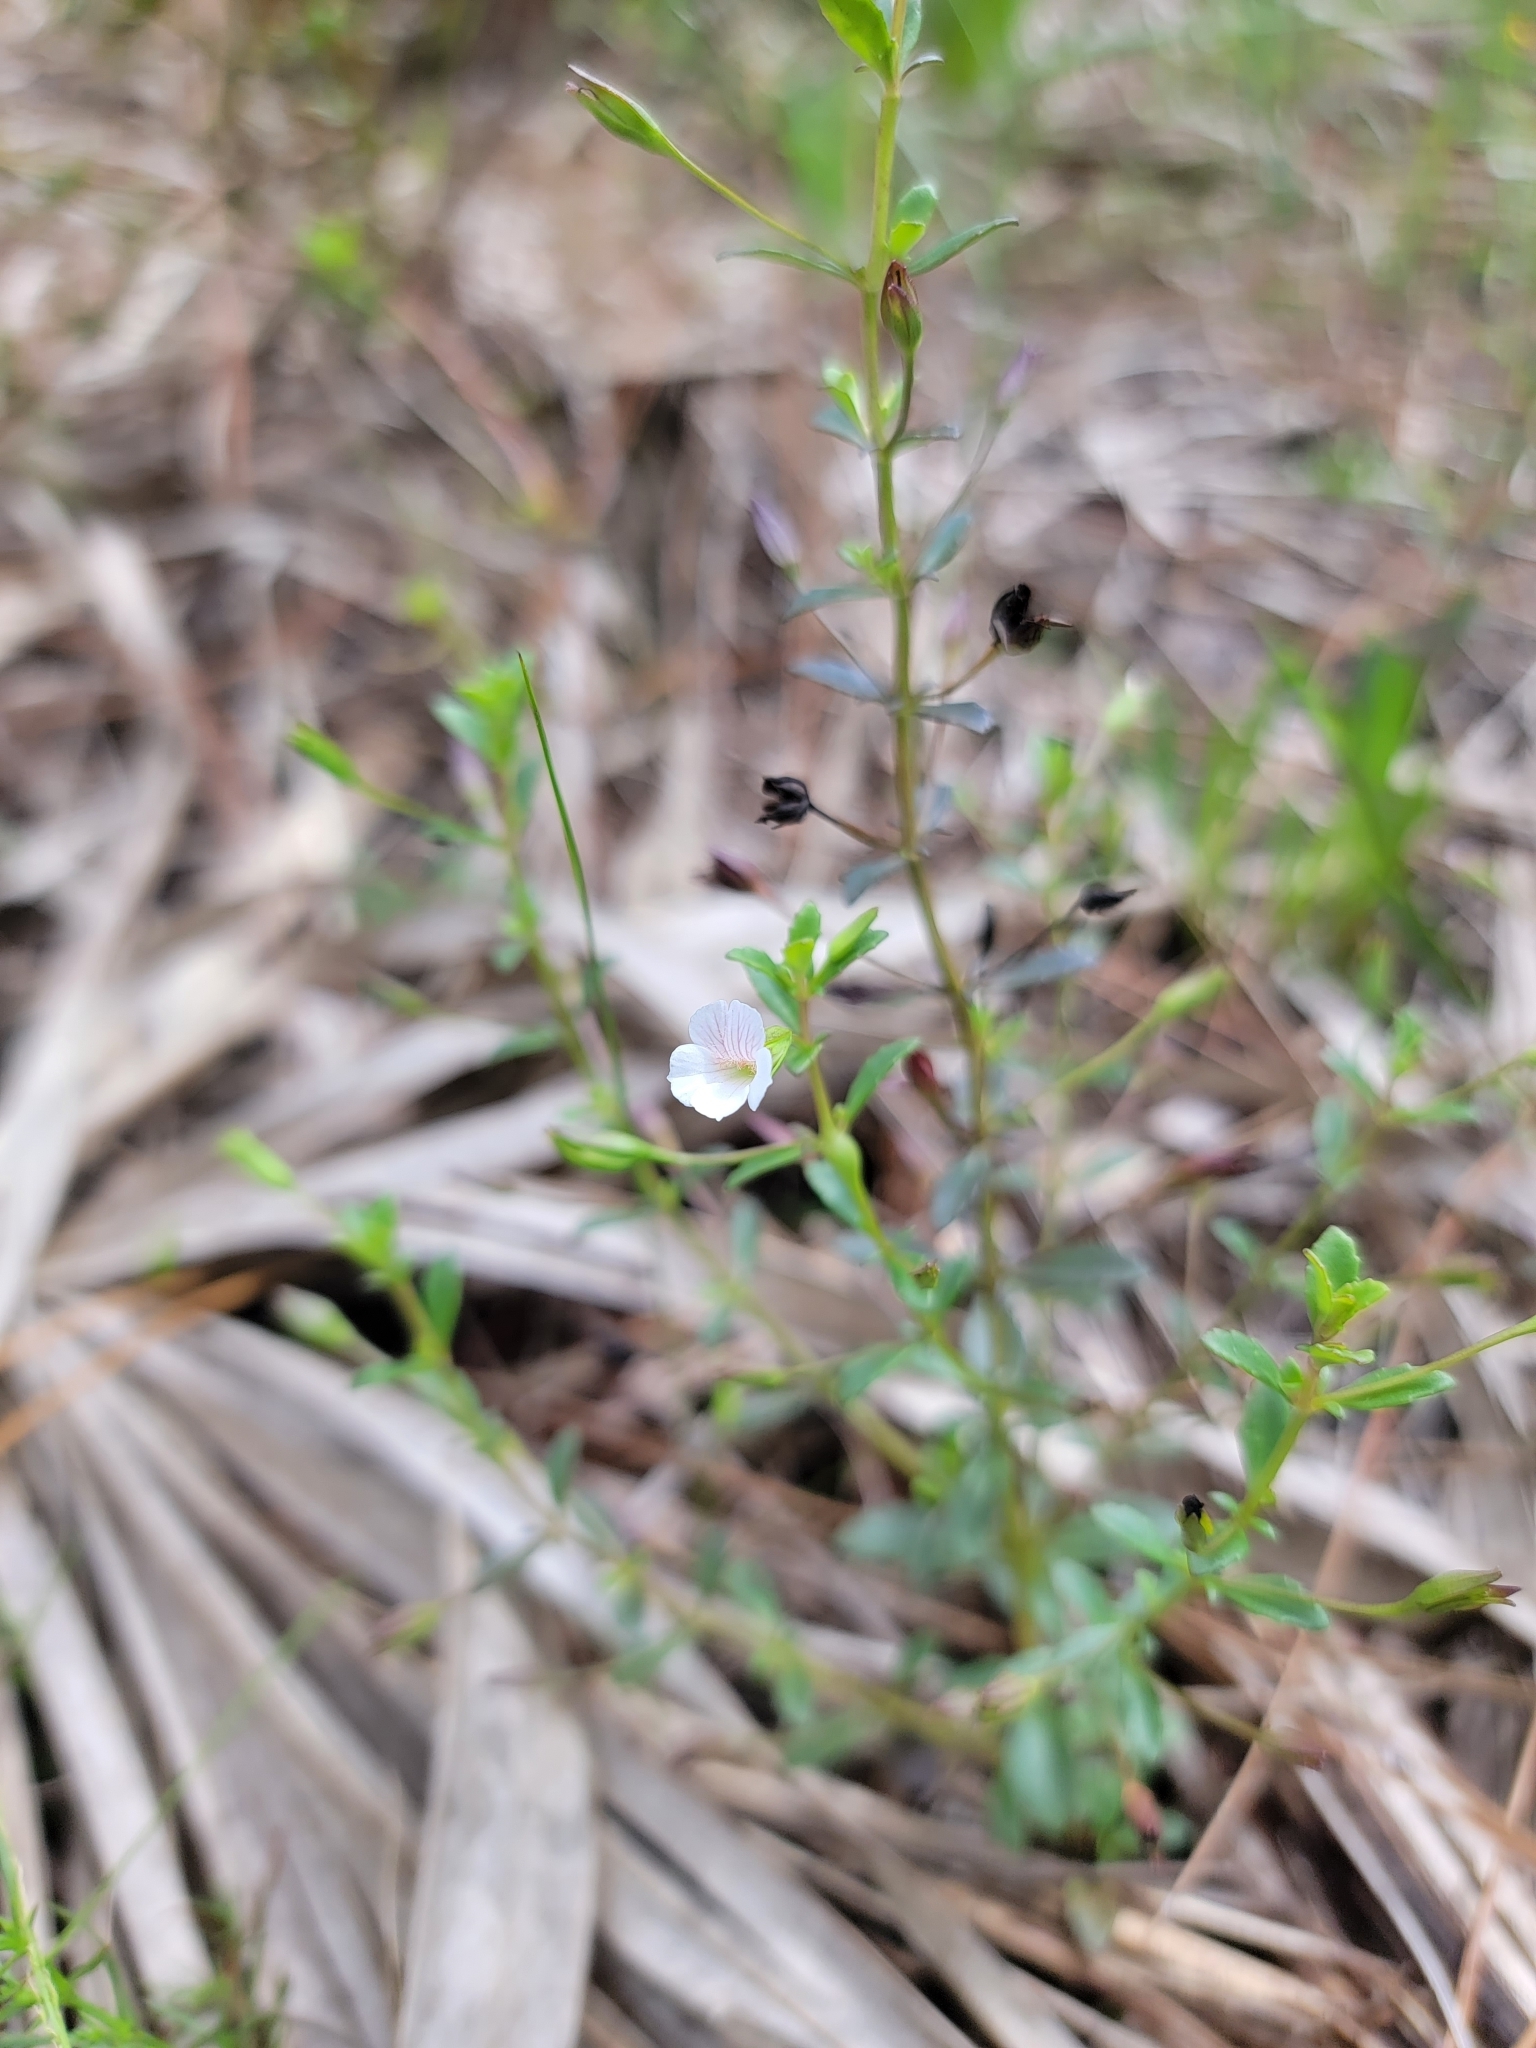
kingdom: Plantae
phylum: Tracheophyta
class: Magnoliopsida
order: Lamiales
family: Plantaginaceae
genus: Mecardonia
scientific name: Mecardonia acuminata
